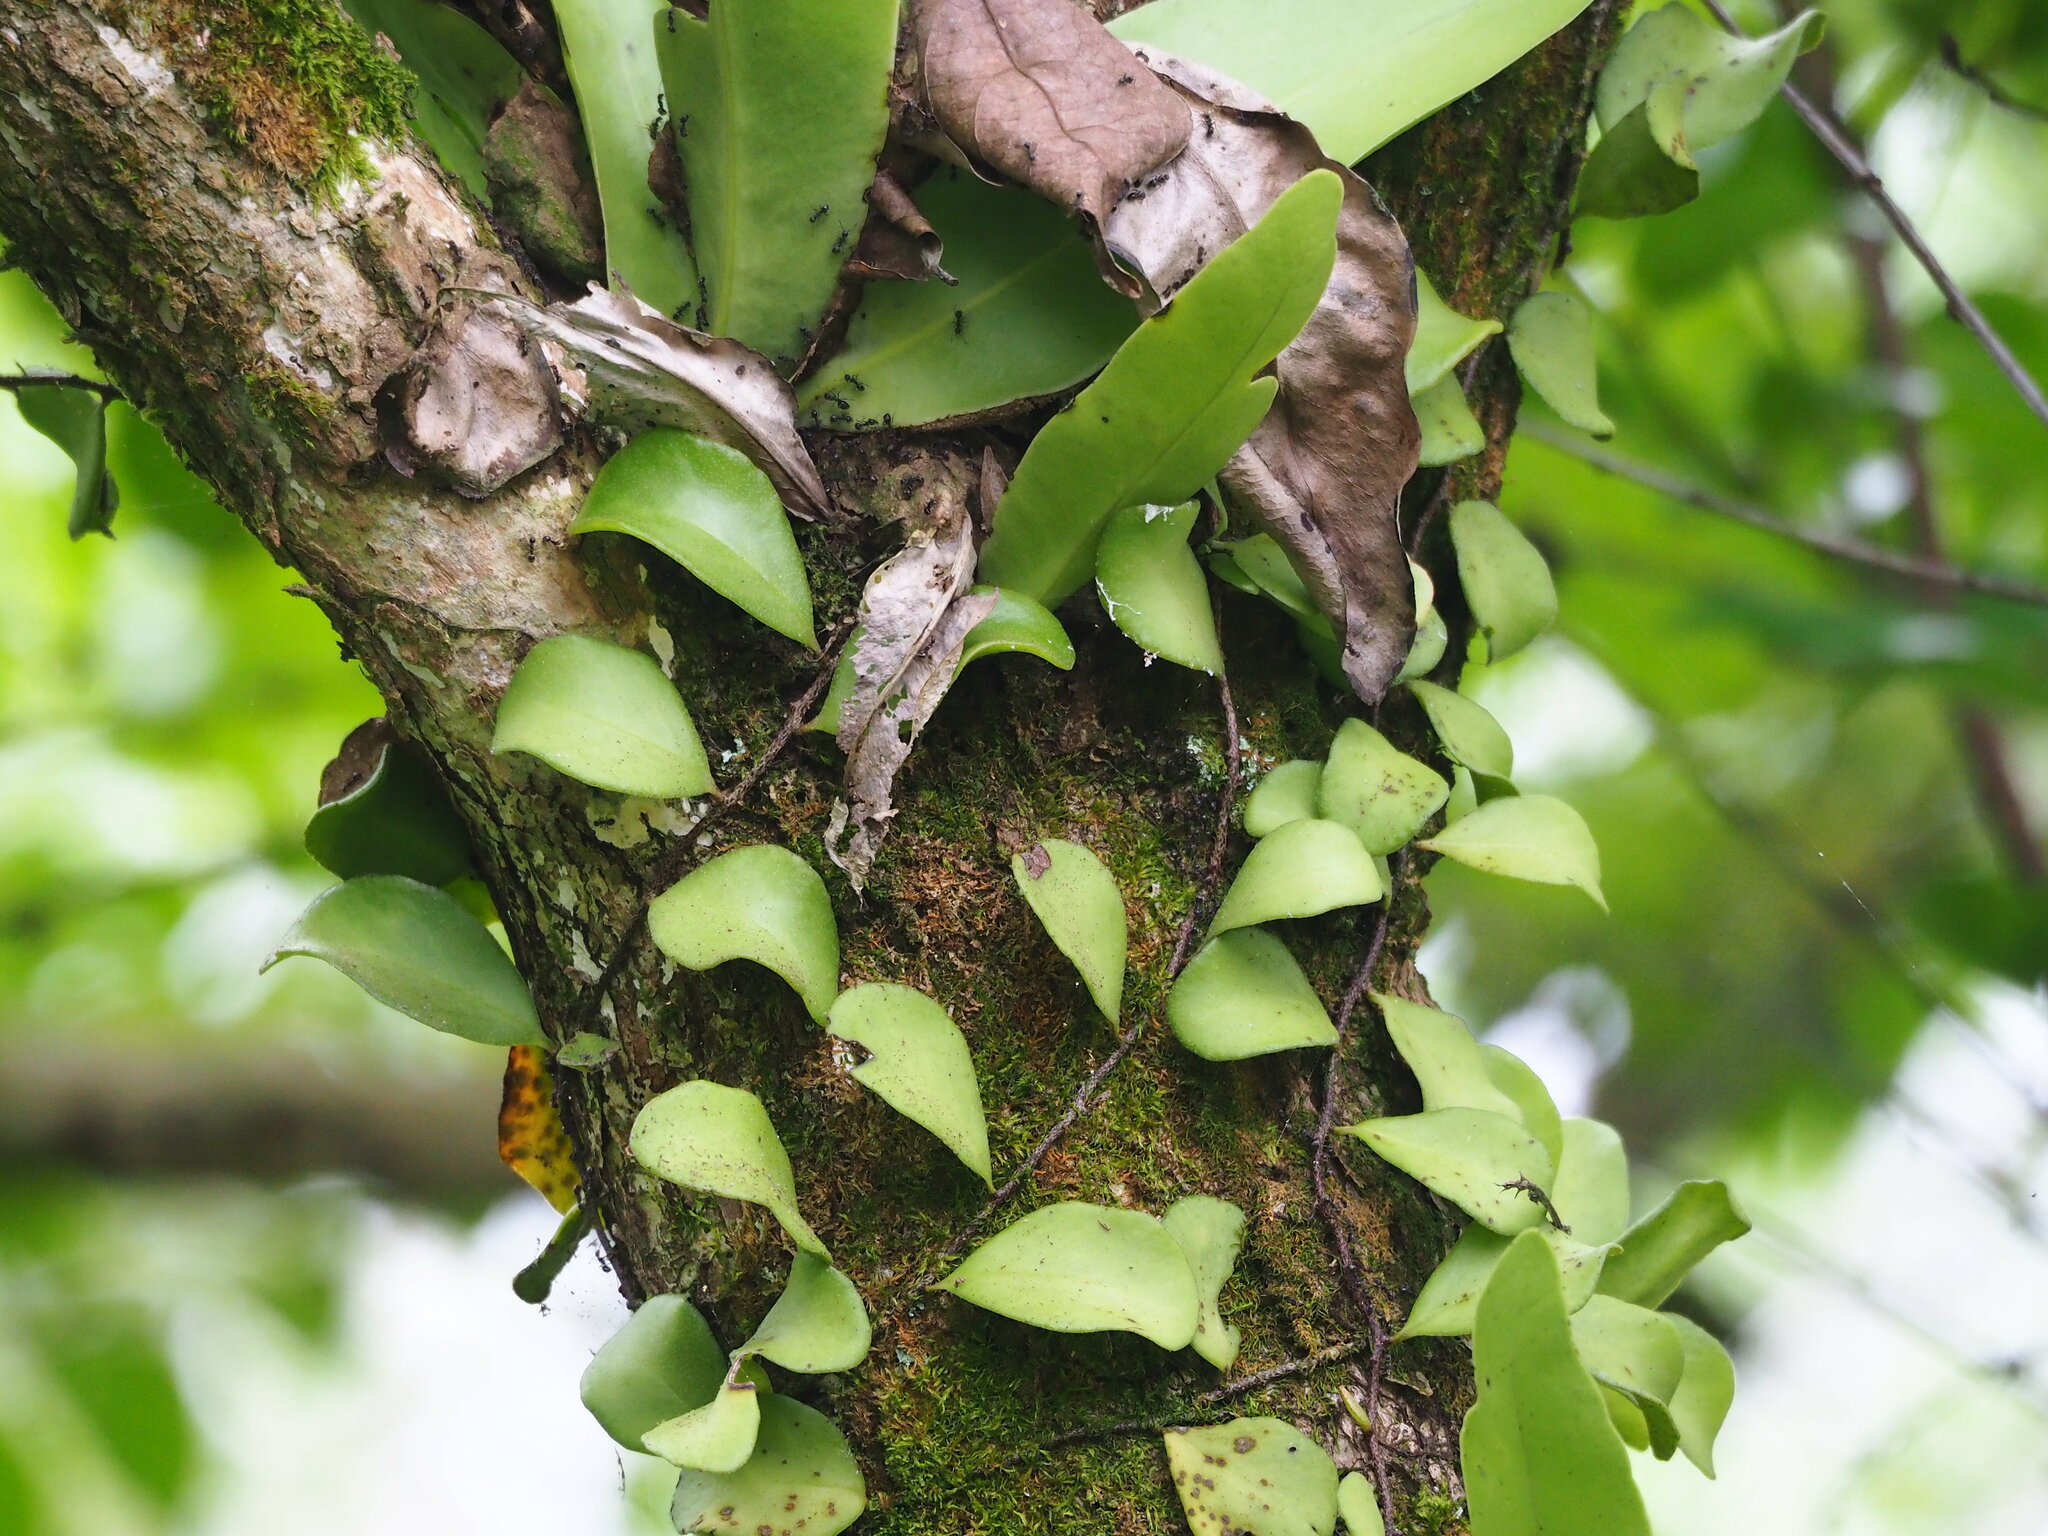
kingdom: Plantae
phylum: Tracheophyta
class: Polypodiopsida
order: Polypodiales
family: Polypodiaceae
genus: Pyrrosia
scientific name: Pyrrosia lanceolata
